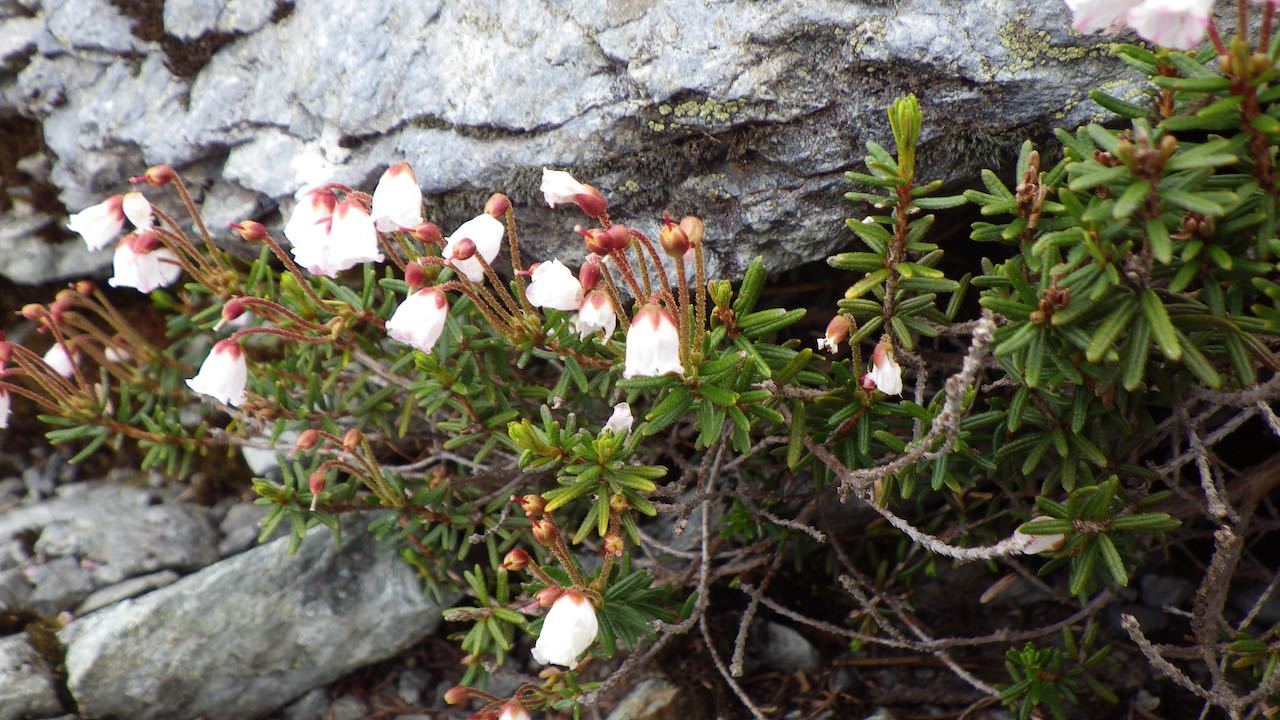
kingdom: Plantae
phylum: Tracheophyta
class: Magnoliopsida
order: Ericales
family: Ericaceae
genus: Phyllodoce
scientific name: Phyllodoce nipponica
